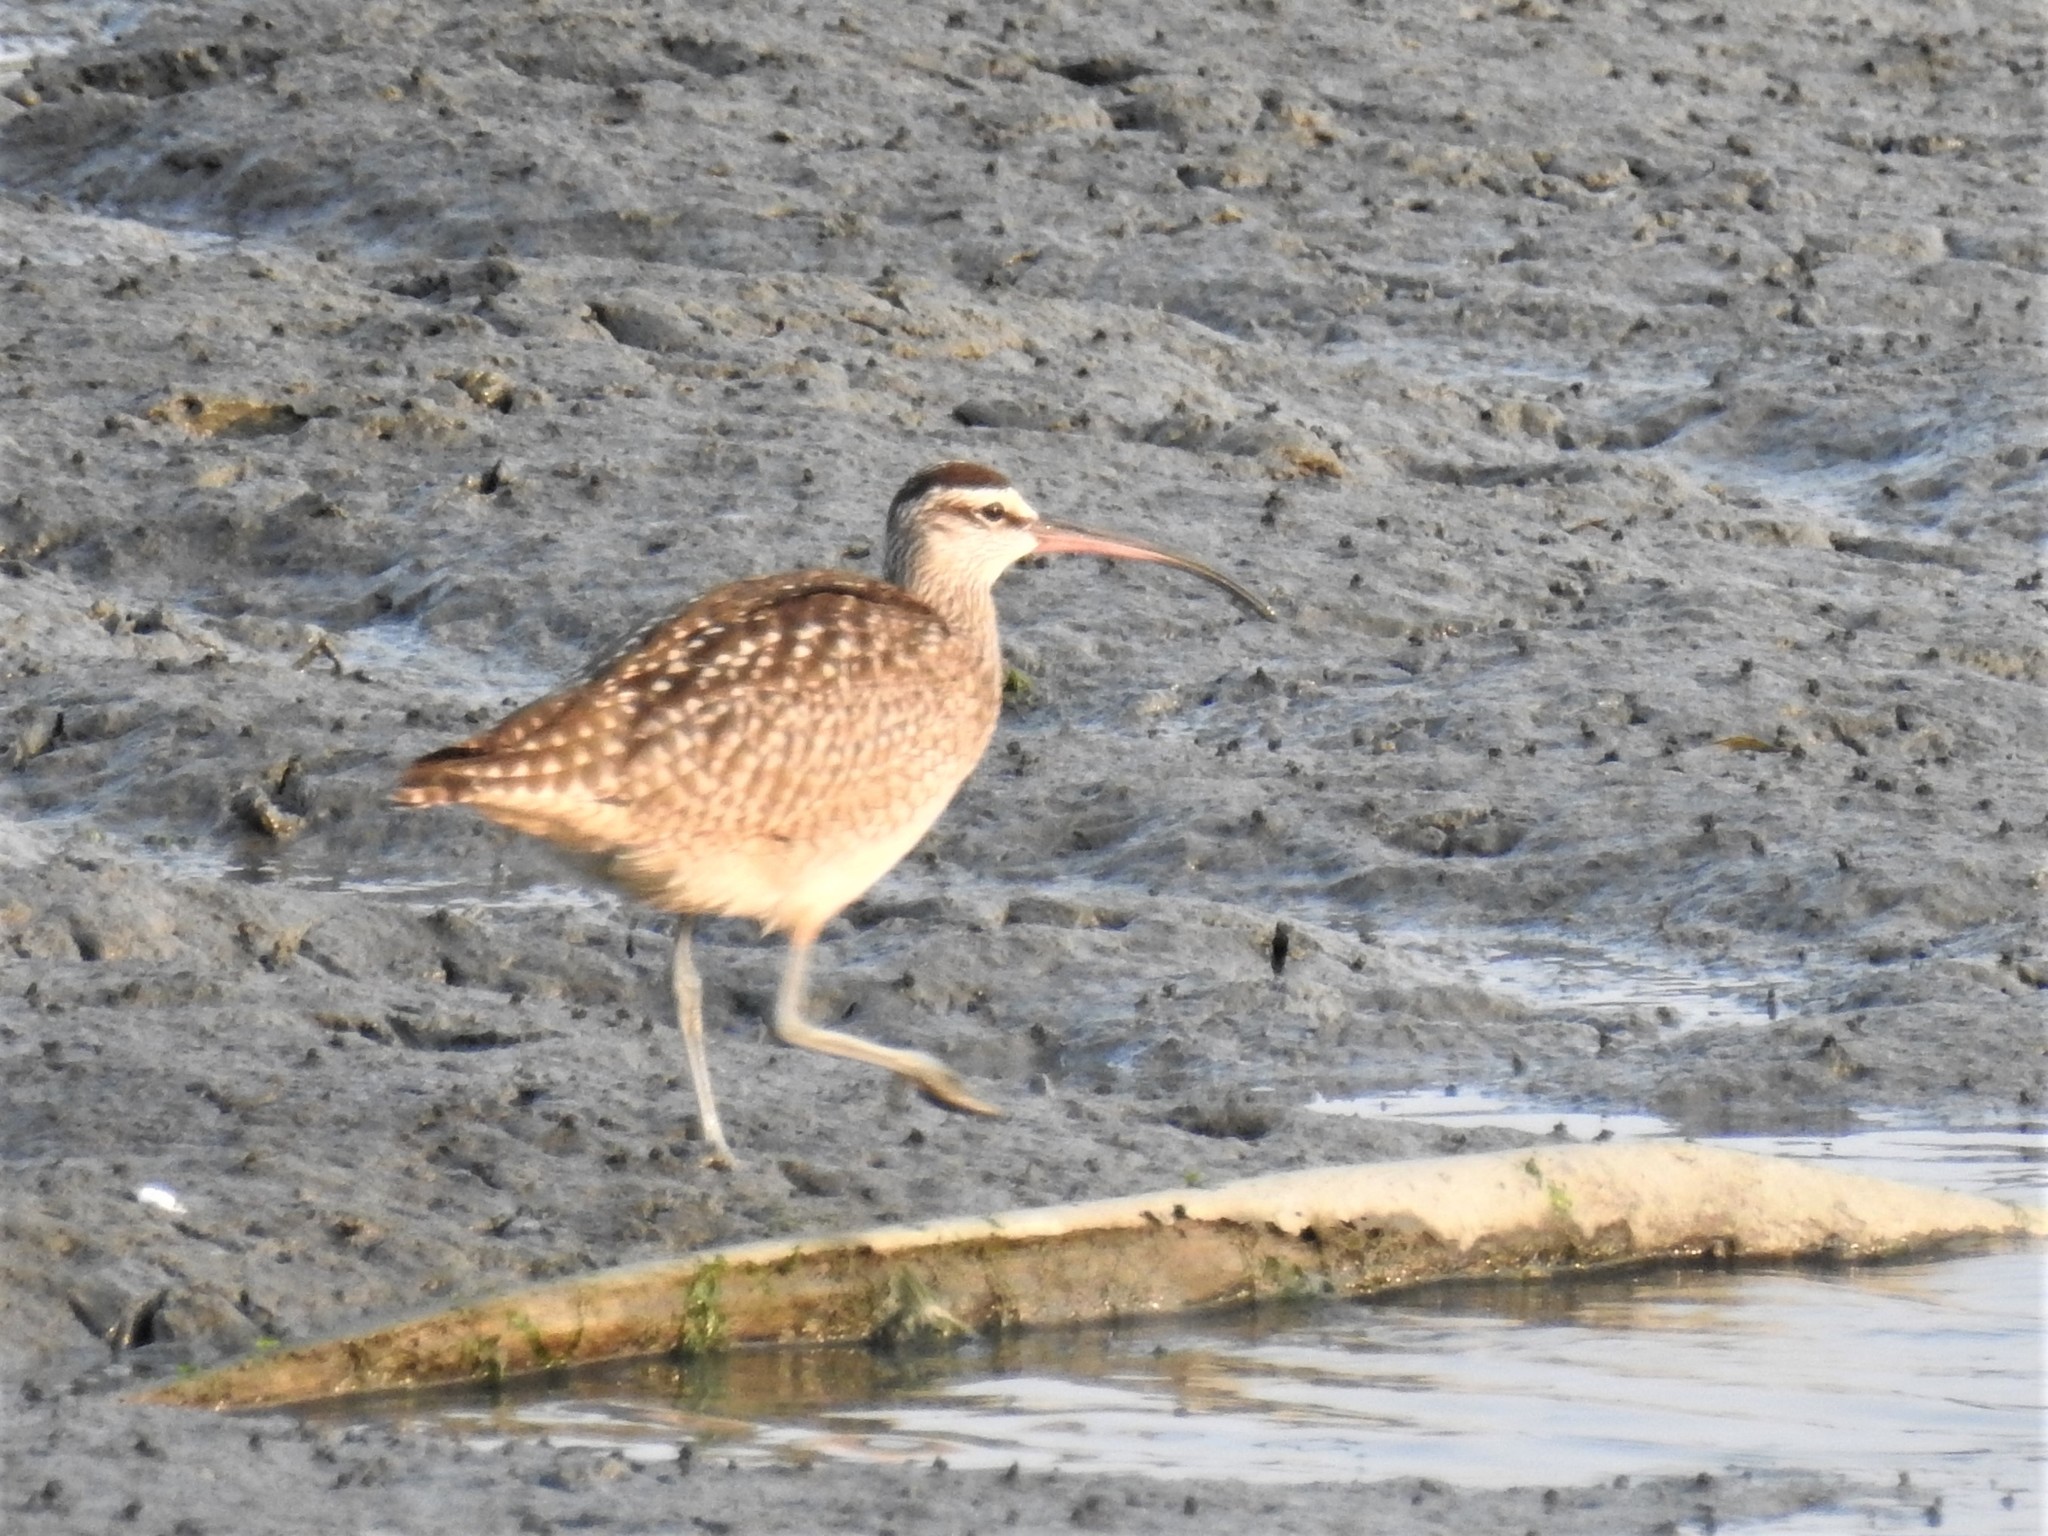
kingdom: Animalia
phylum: Chordata
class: Aves
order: Charadriiformes
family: Scolopacidae
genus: Numenius
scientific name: Numenius phaeopus
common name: Whimbrel
